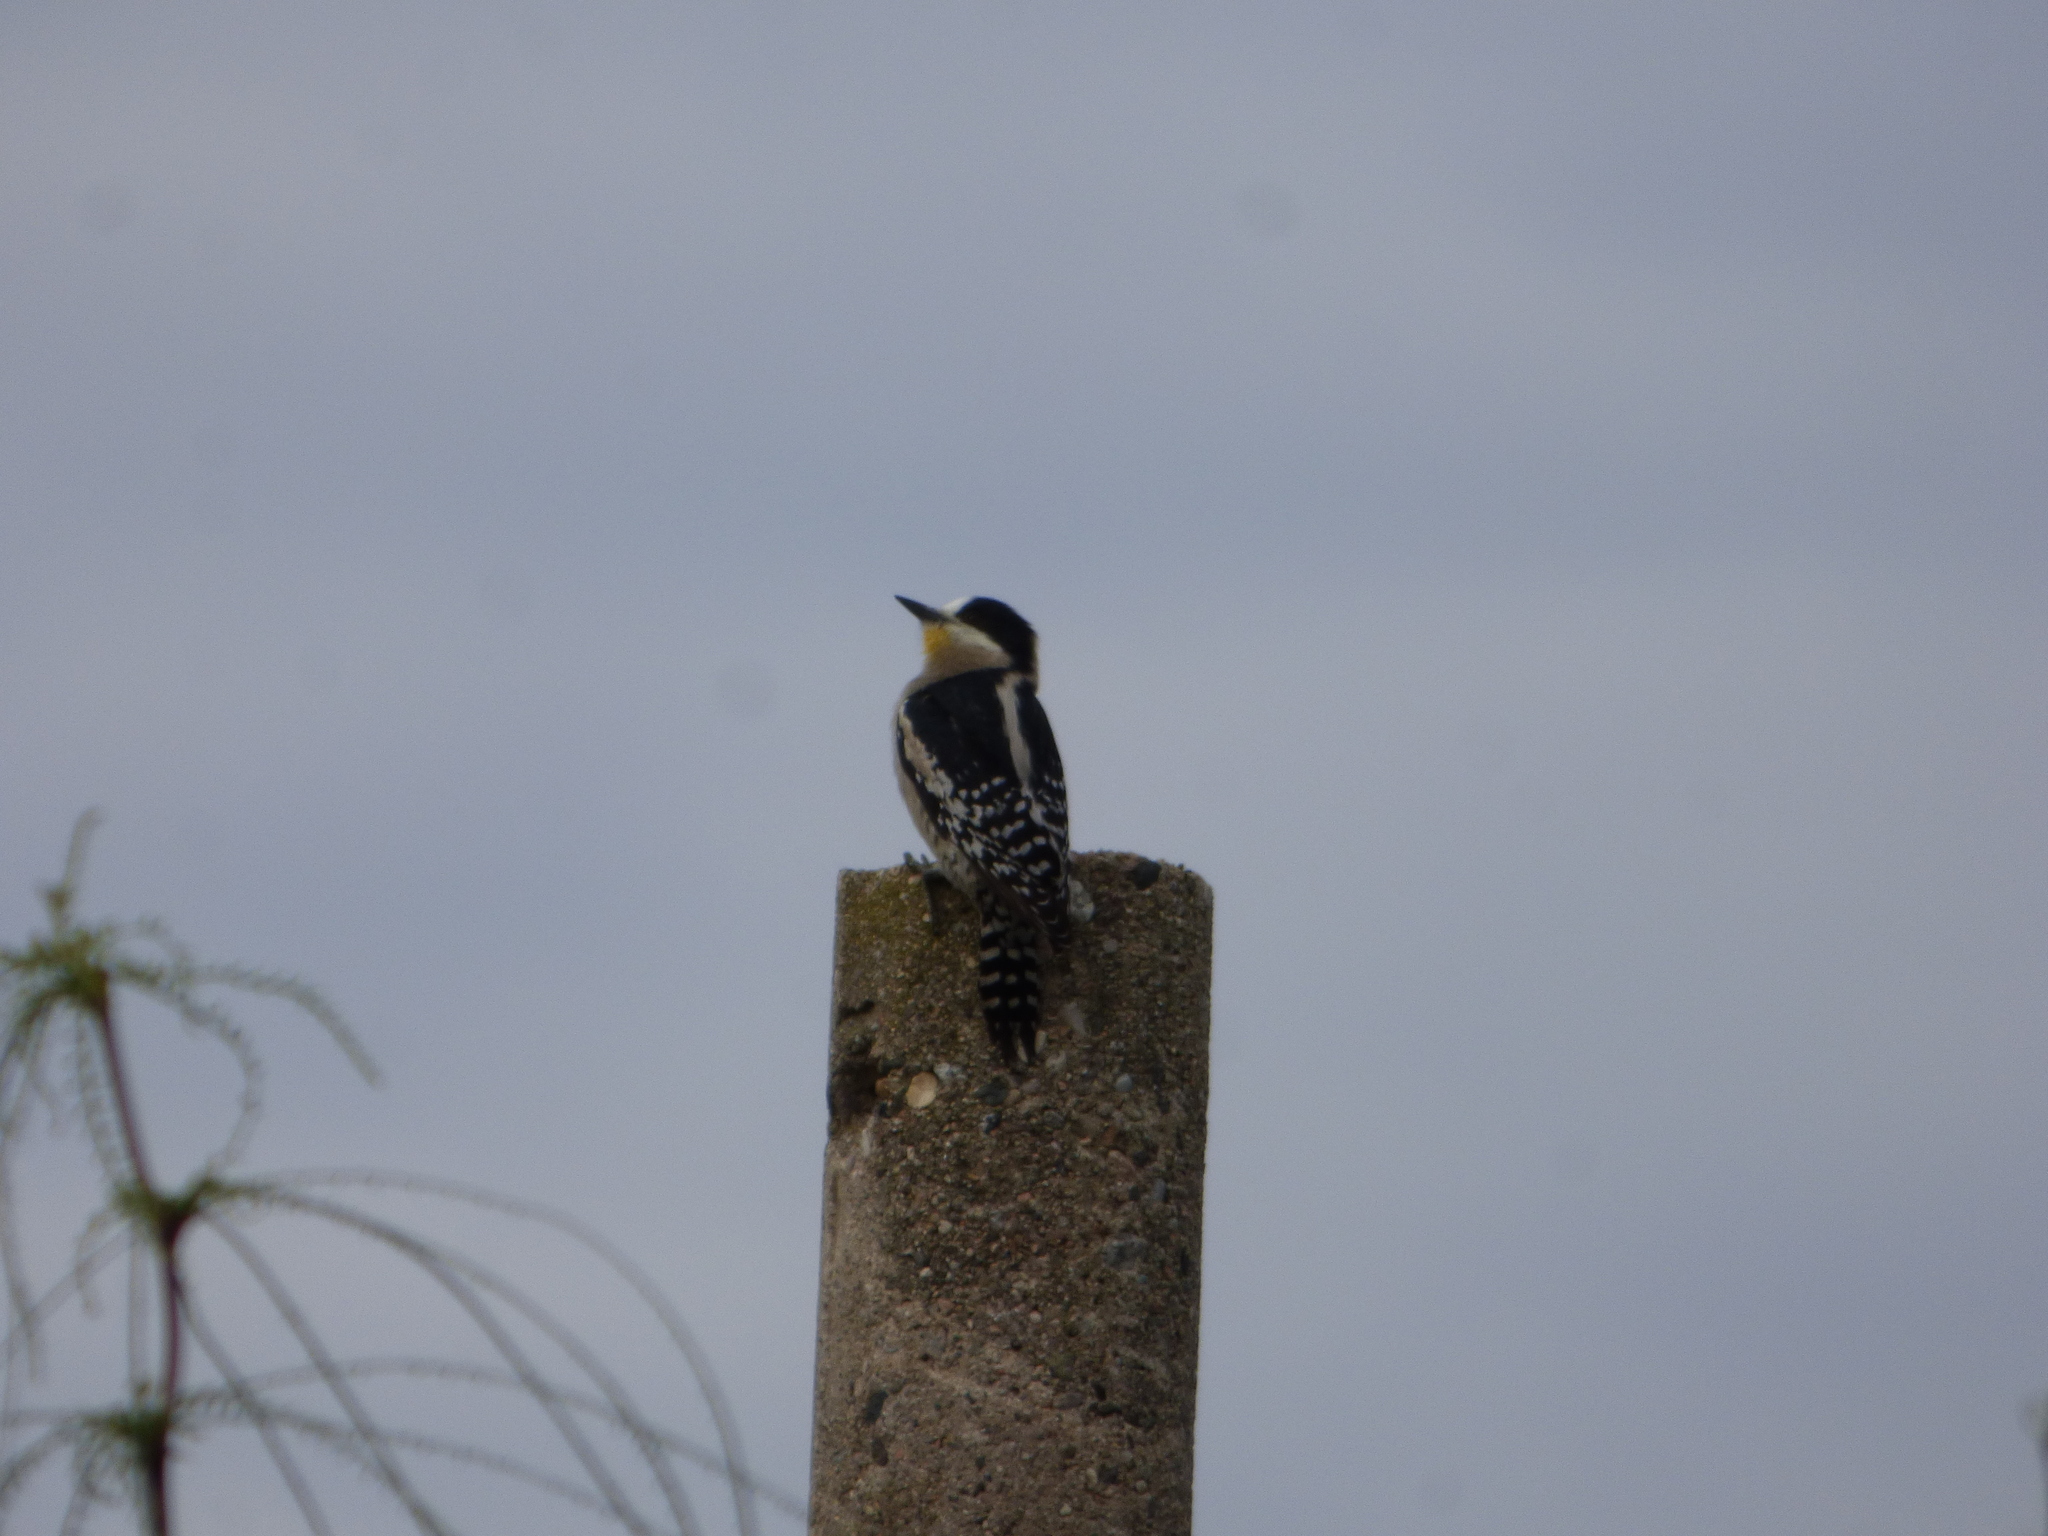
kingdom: Animalia
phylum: Chordata
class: Aves
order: Piciformes
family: Picidae
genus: Melanerpes
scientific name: Melanerpes cactorum
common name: White-fronted woodpecker
